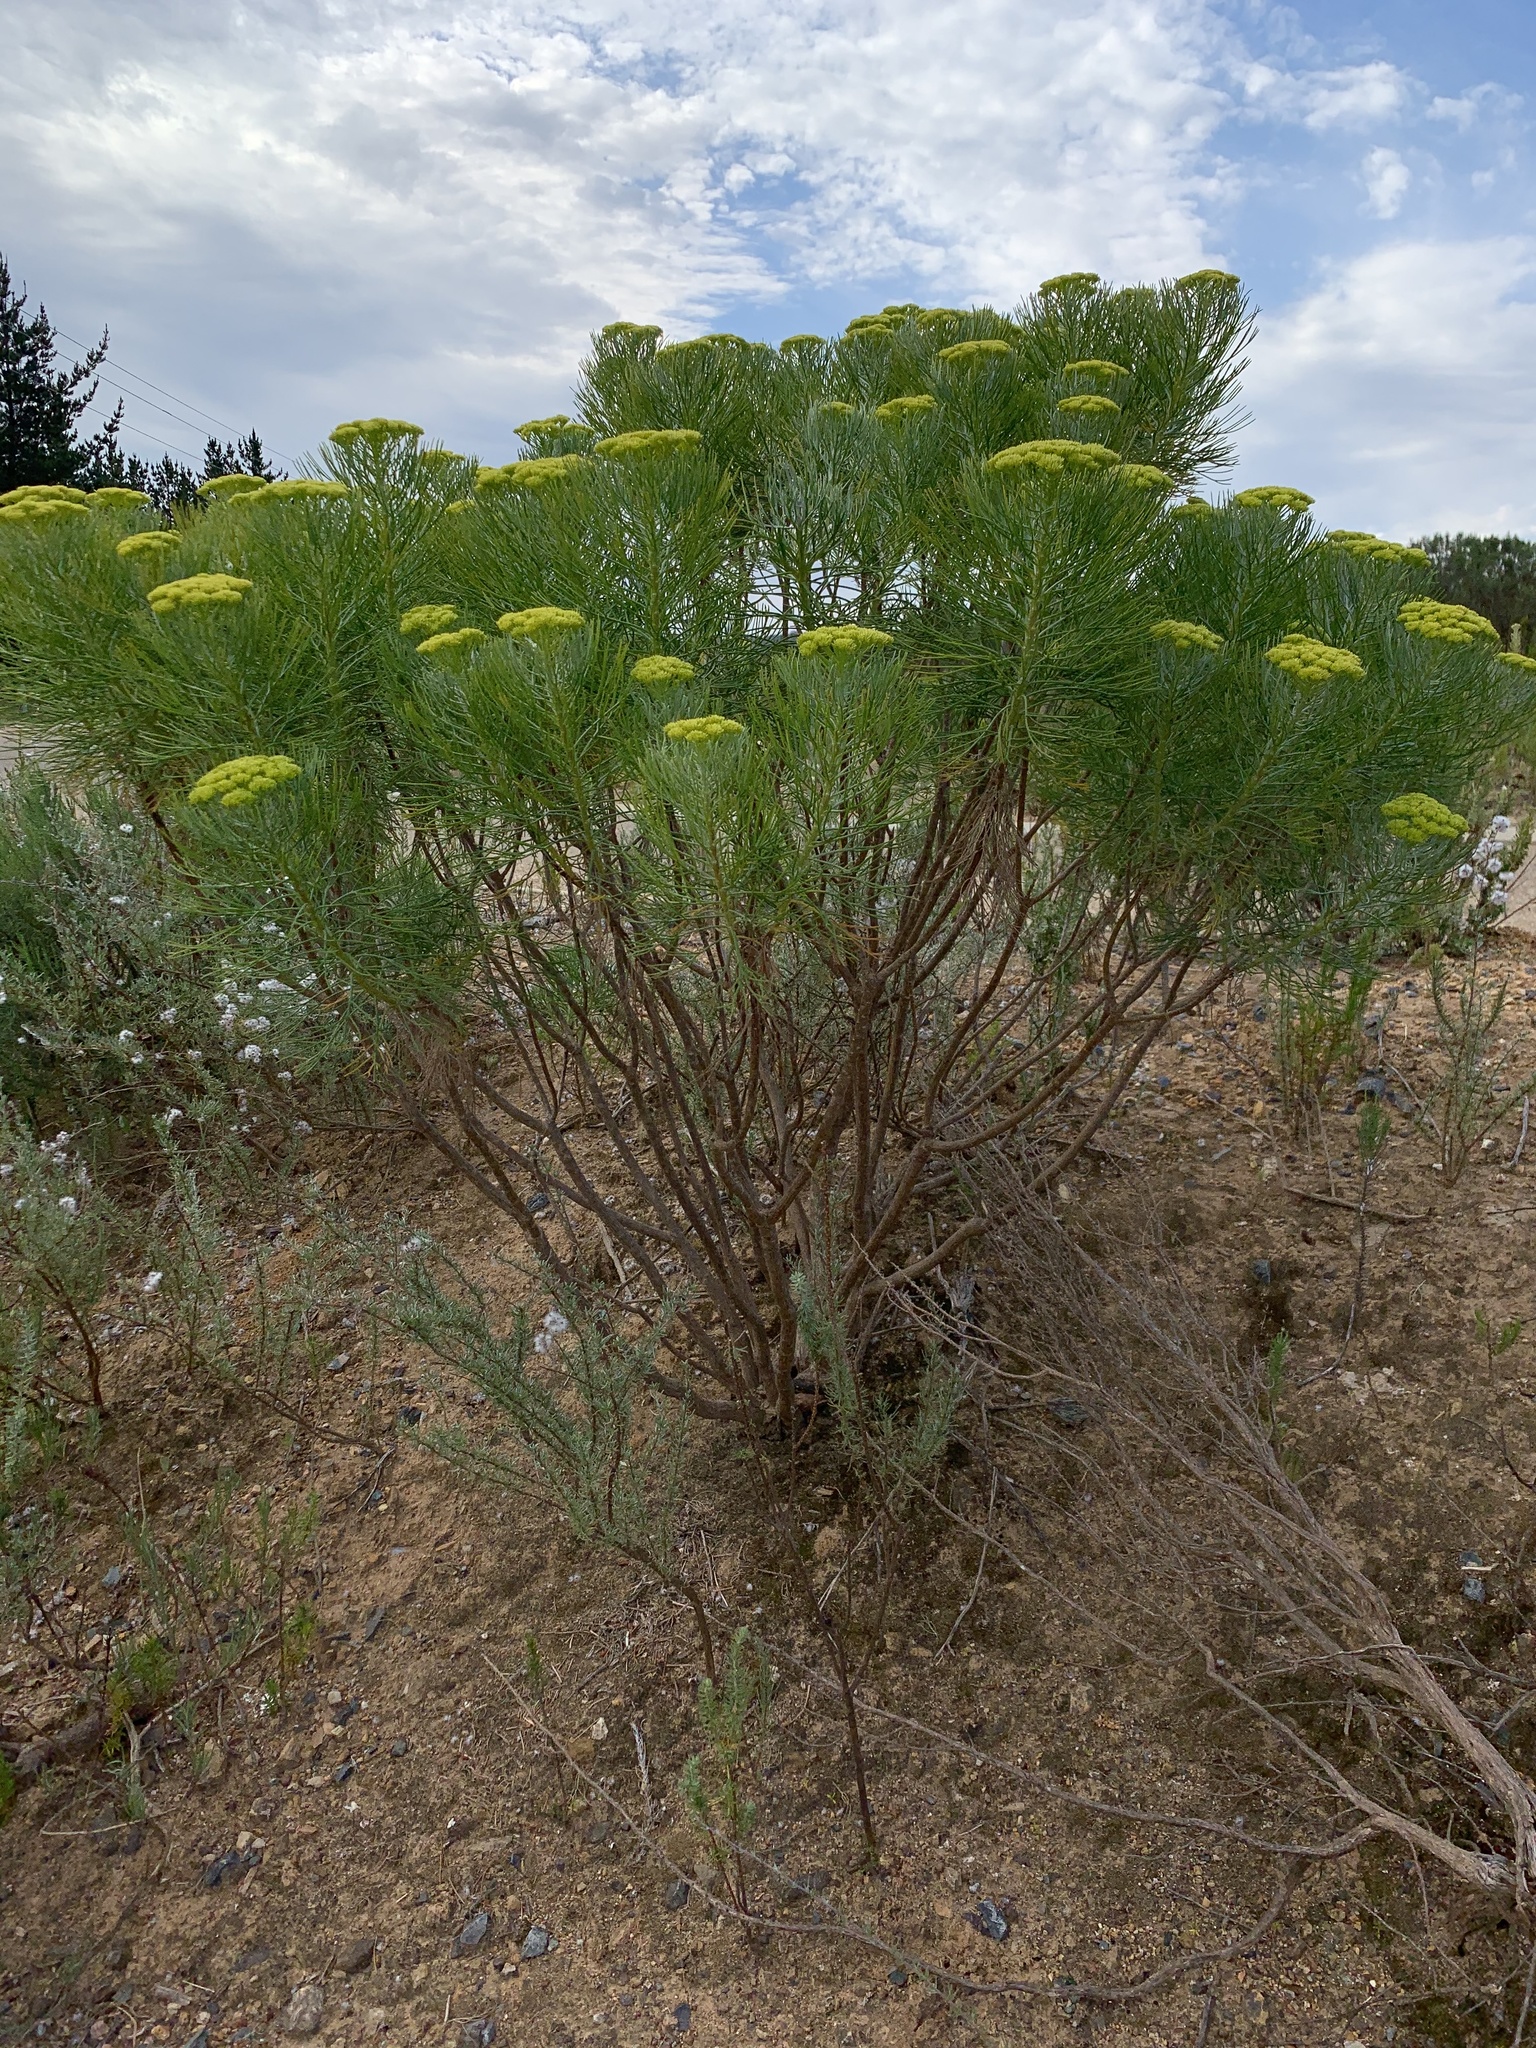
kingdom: Plantae
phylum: Tracheophyta
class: Magnoliopsida
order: Asterales
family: Asteraceae
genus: Hymenolepis
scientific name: Hymenolepis crithmifolia
